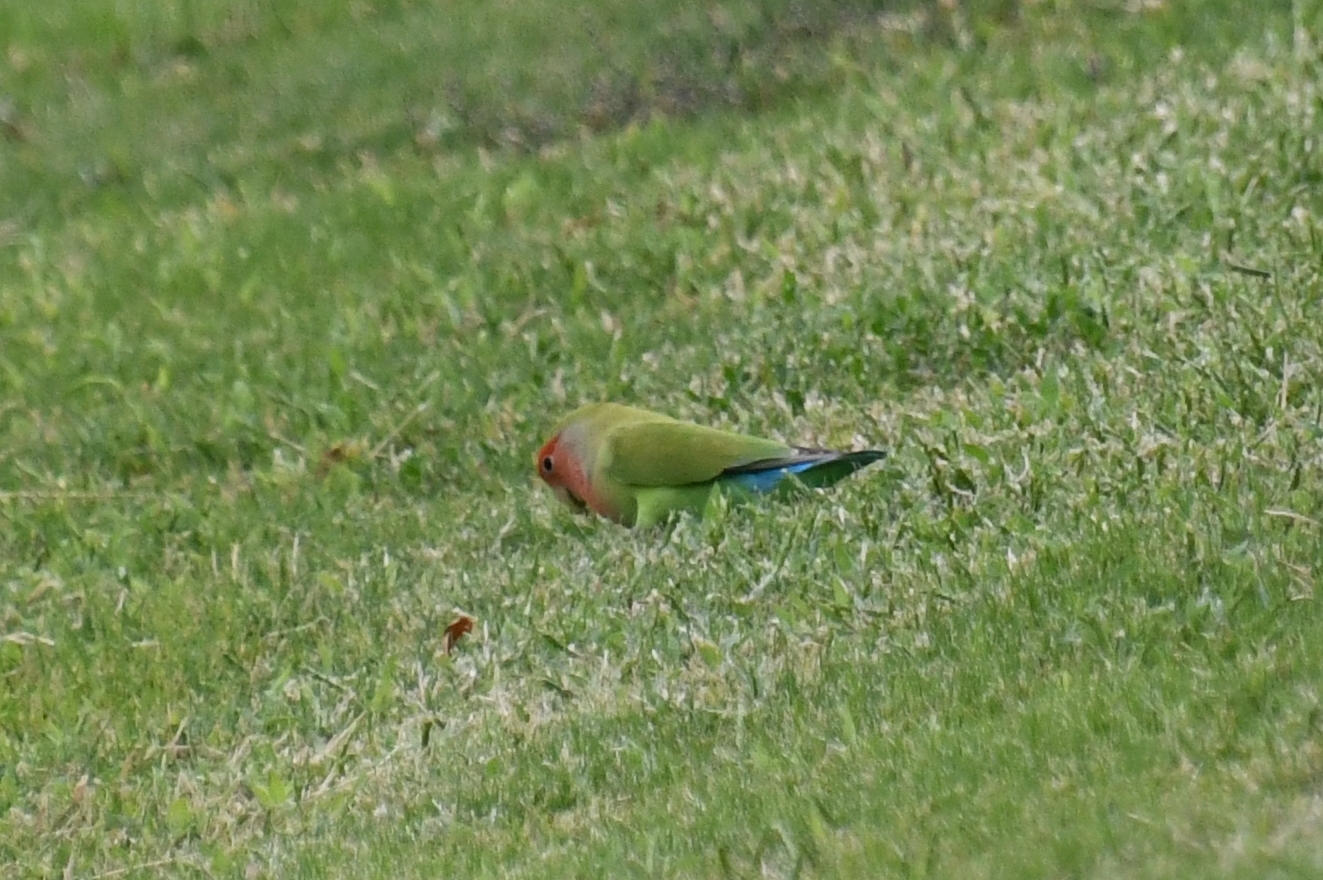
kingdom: Animalia
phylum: Chordata
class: Aves
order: Psittaciformes
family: Psittacidae
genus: Agapornis
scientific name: Agapornis roseicollis
